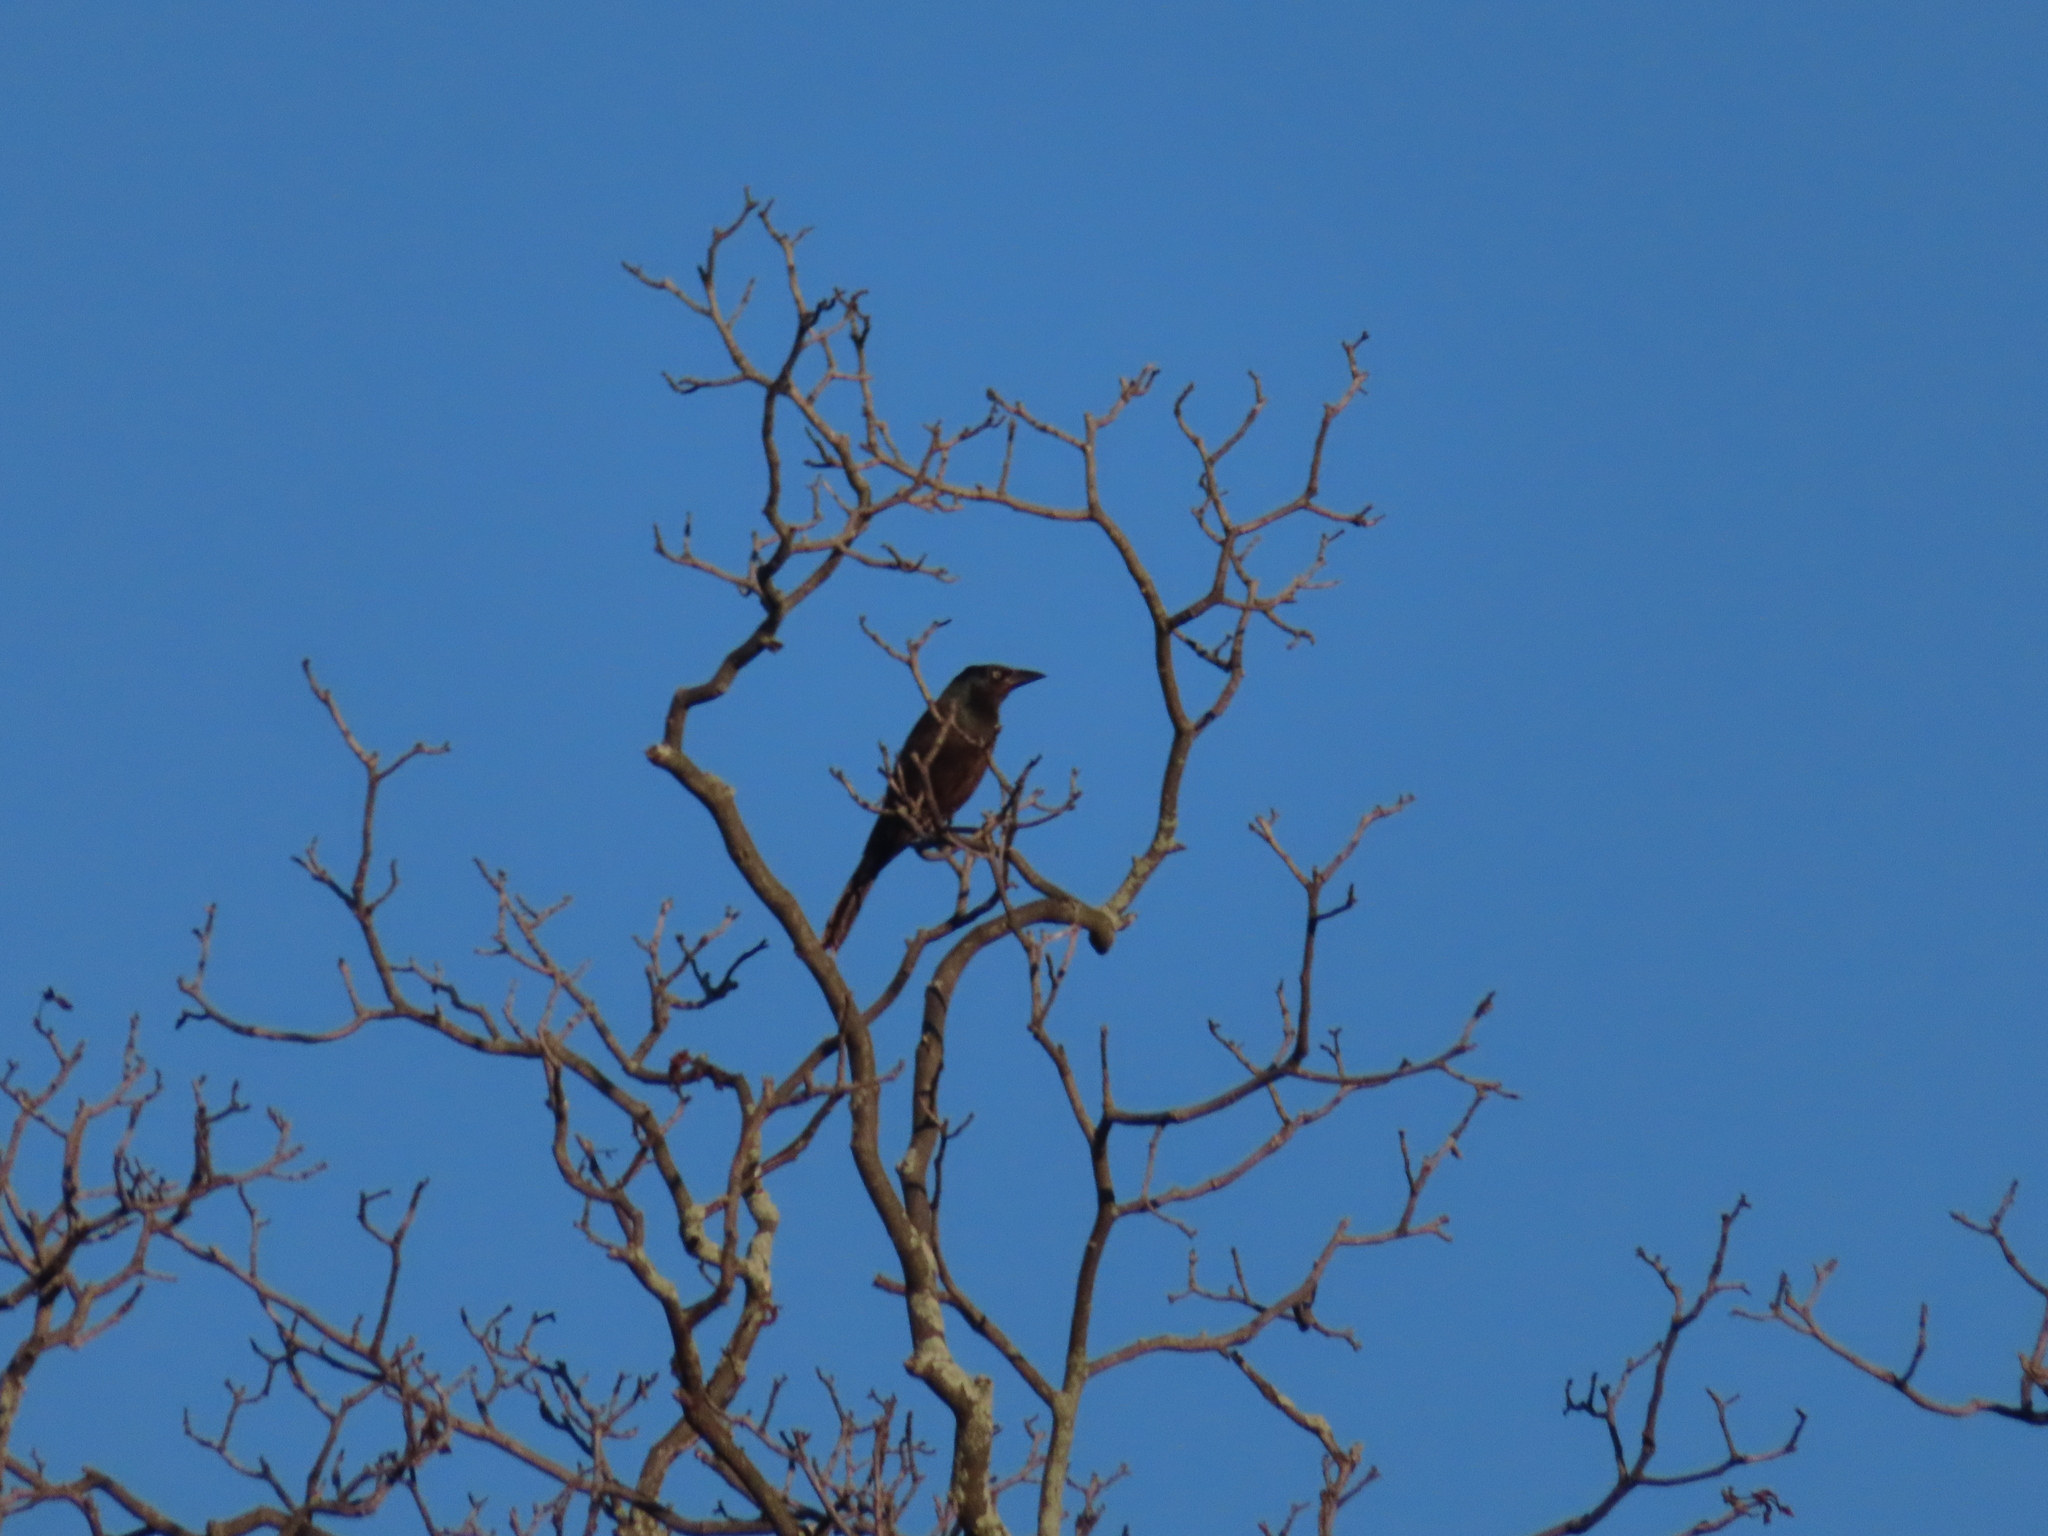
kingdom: Animalia
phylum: Chordata
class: Aves
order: Passeriformes
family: Icteridae
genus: Quiscalus
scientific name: Quiscalus quiscula
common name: Common grackle
